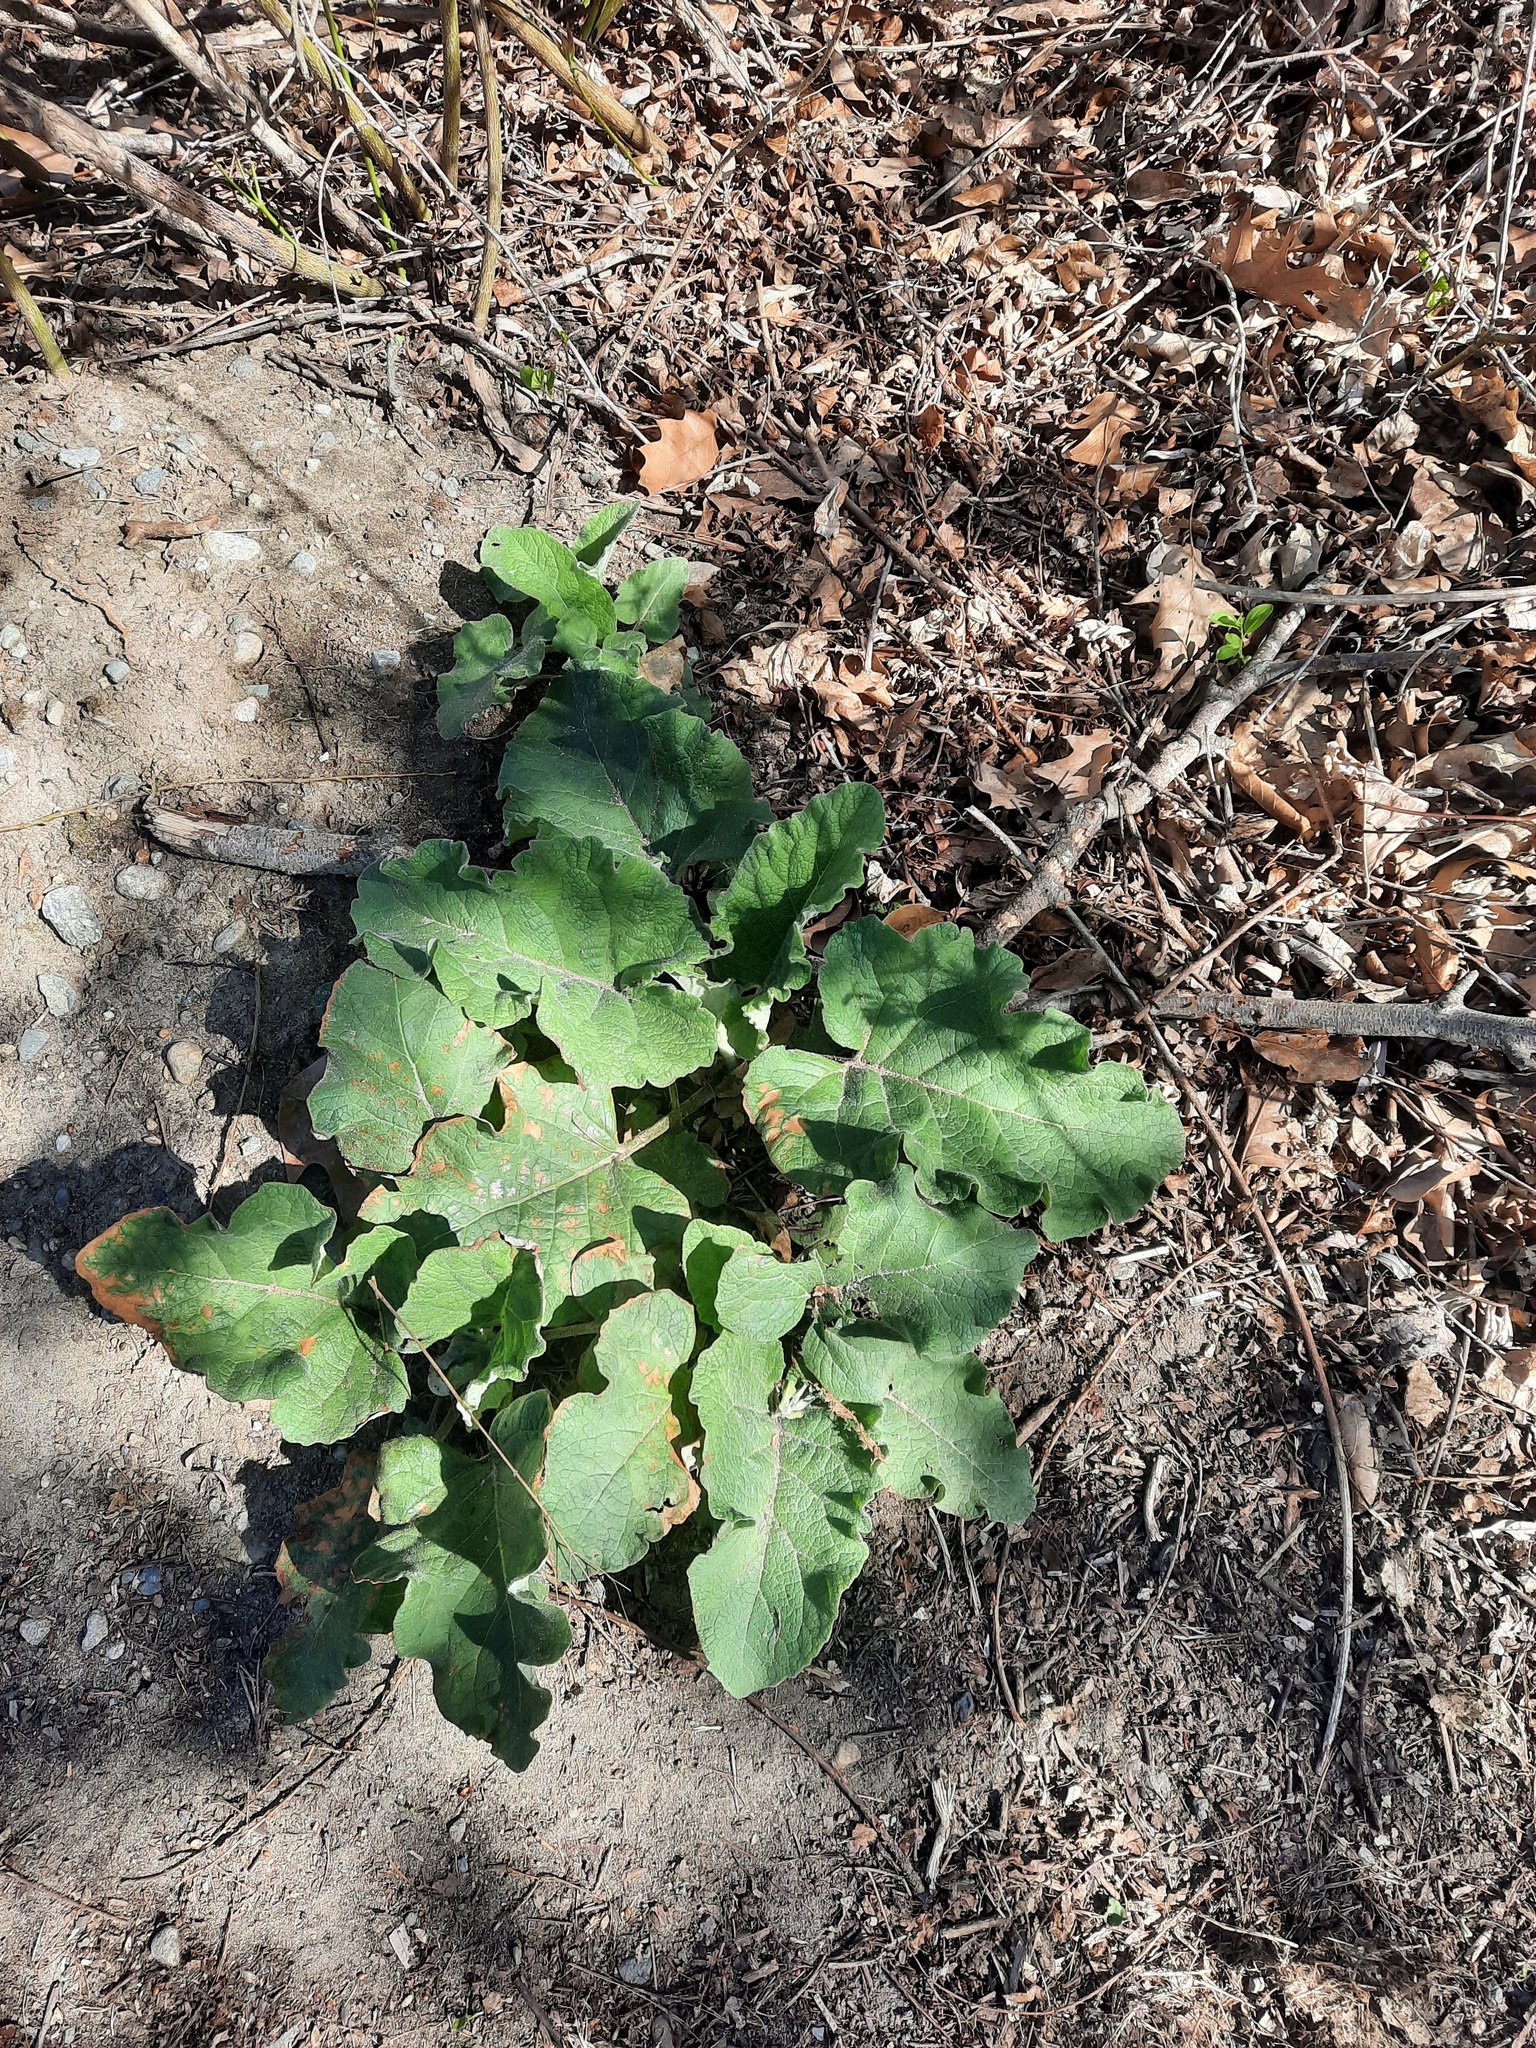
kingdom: Plantae
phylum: Tracheophyta
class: Magnoliopsida
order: Asterales
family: Asteraceae
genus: Arctium
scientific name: Arctium
